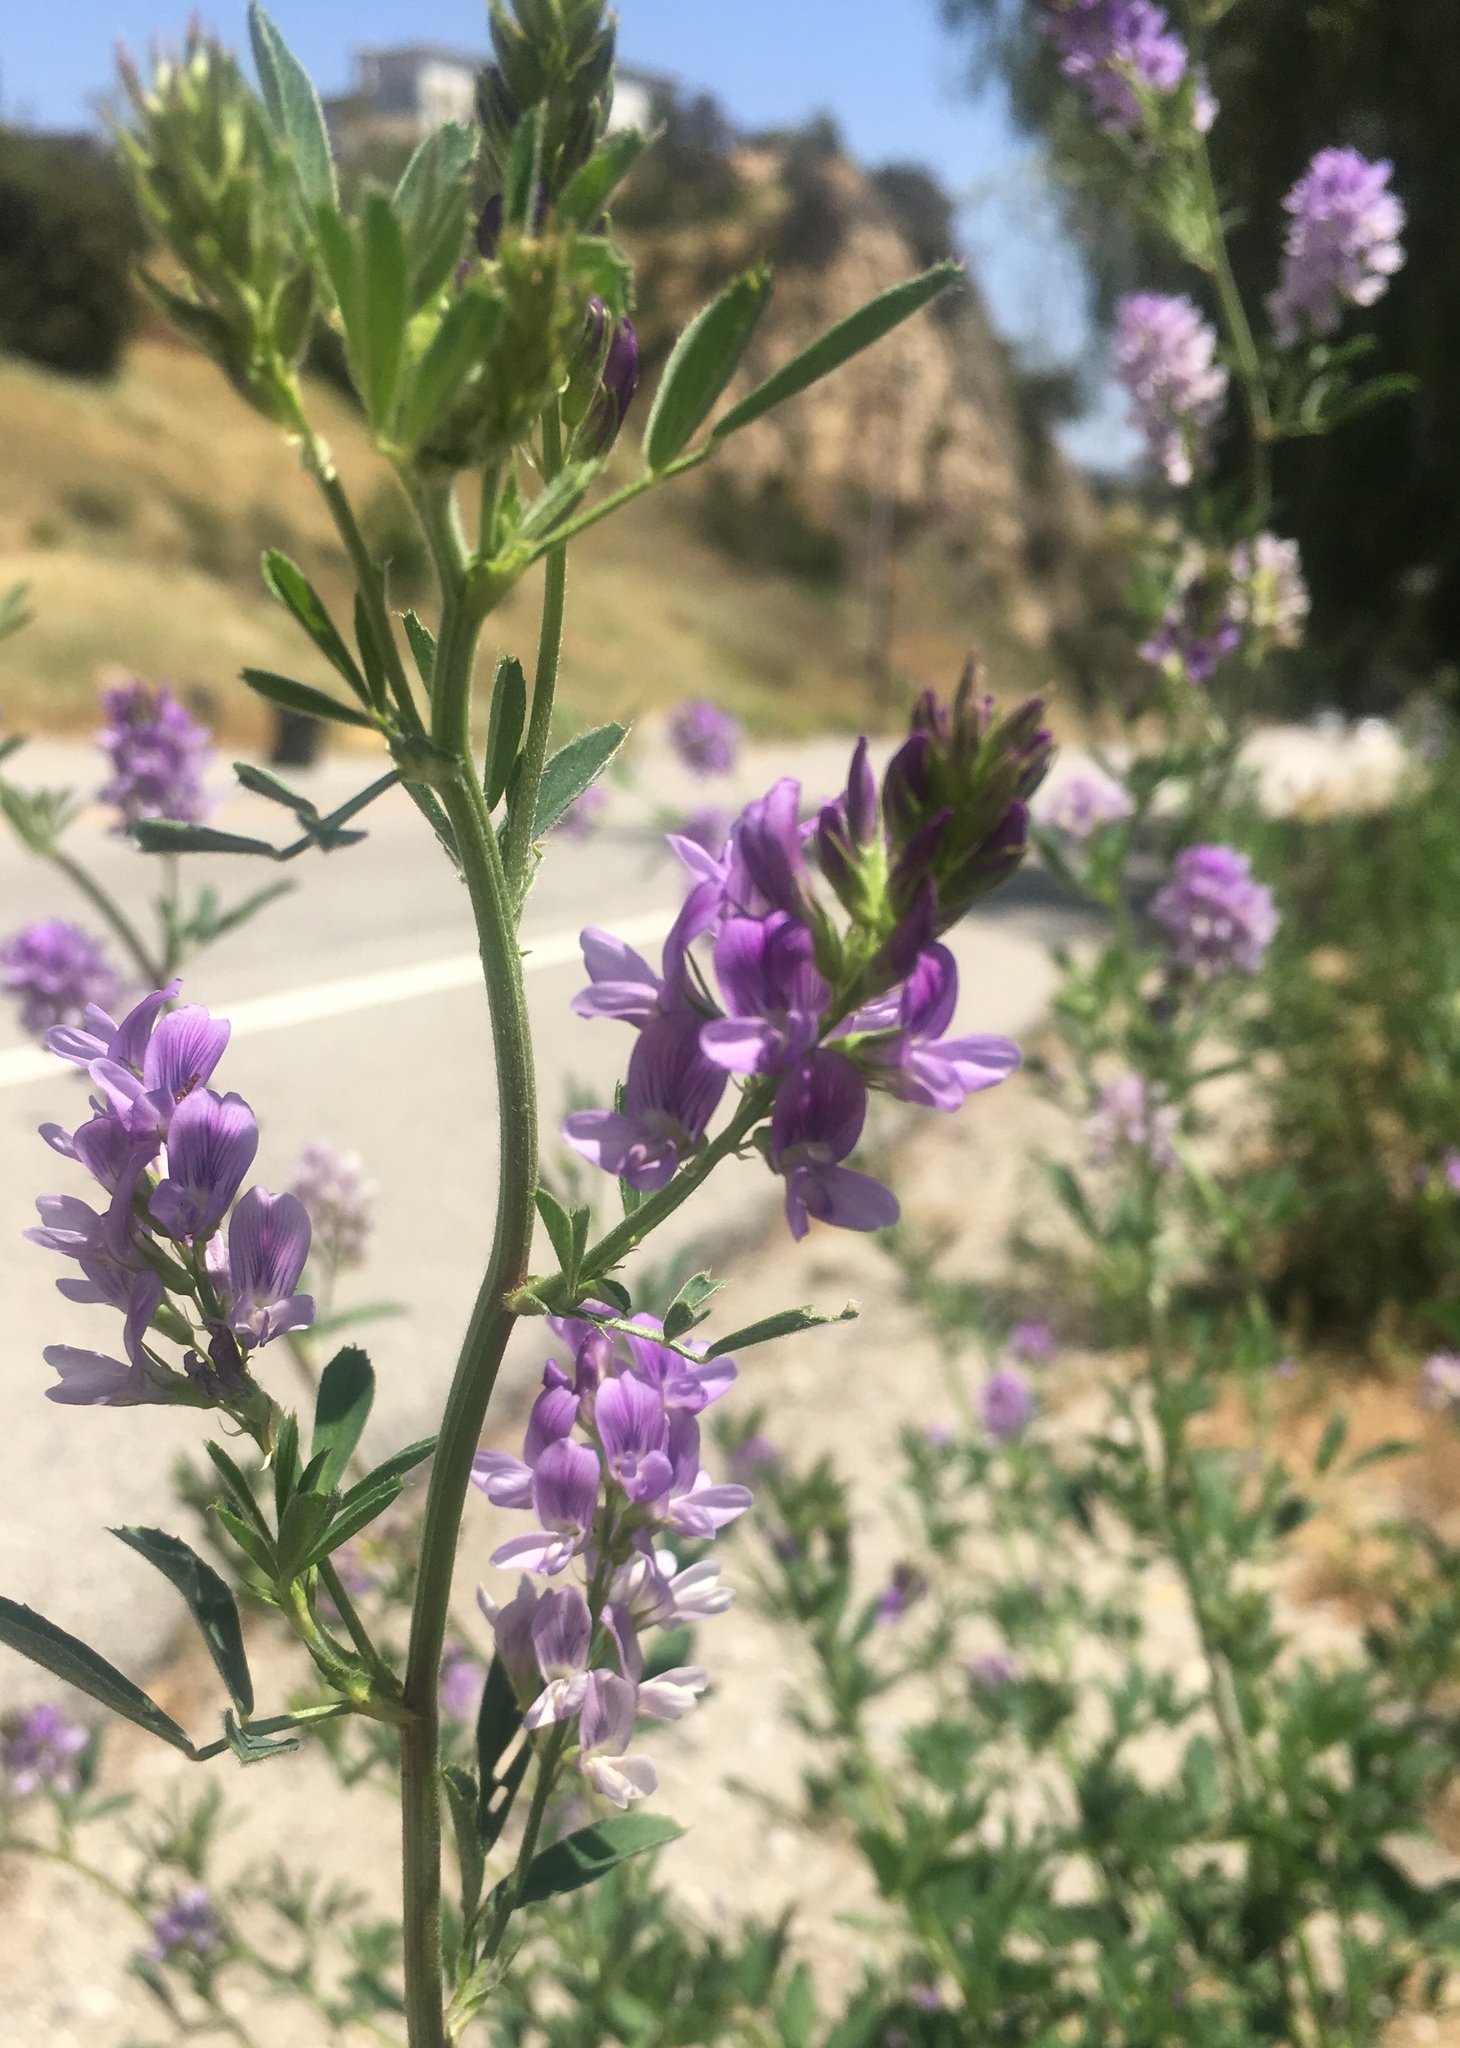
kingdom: Plantae
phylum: Tracheophyta
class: Magnoliopsida
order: Fabales
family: Fabaceae
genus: Medicago
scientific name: Medicago sativa
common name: Alfalfa
